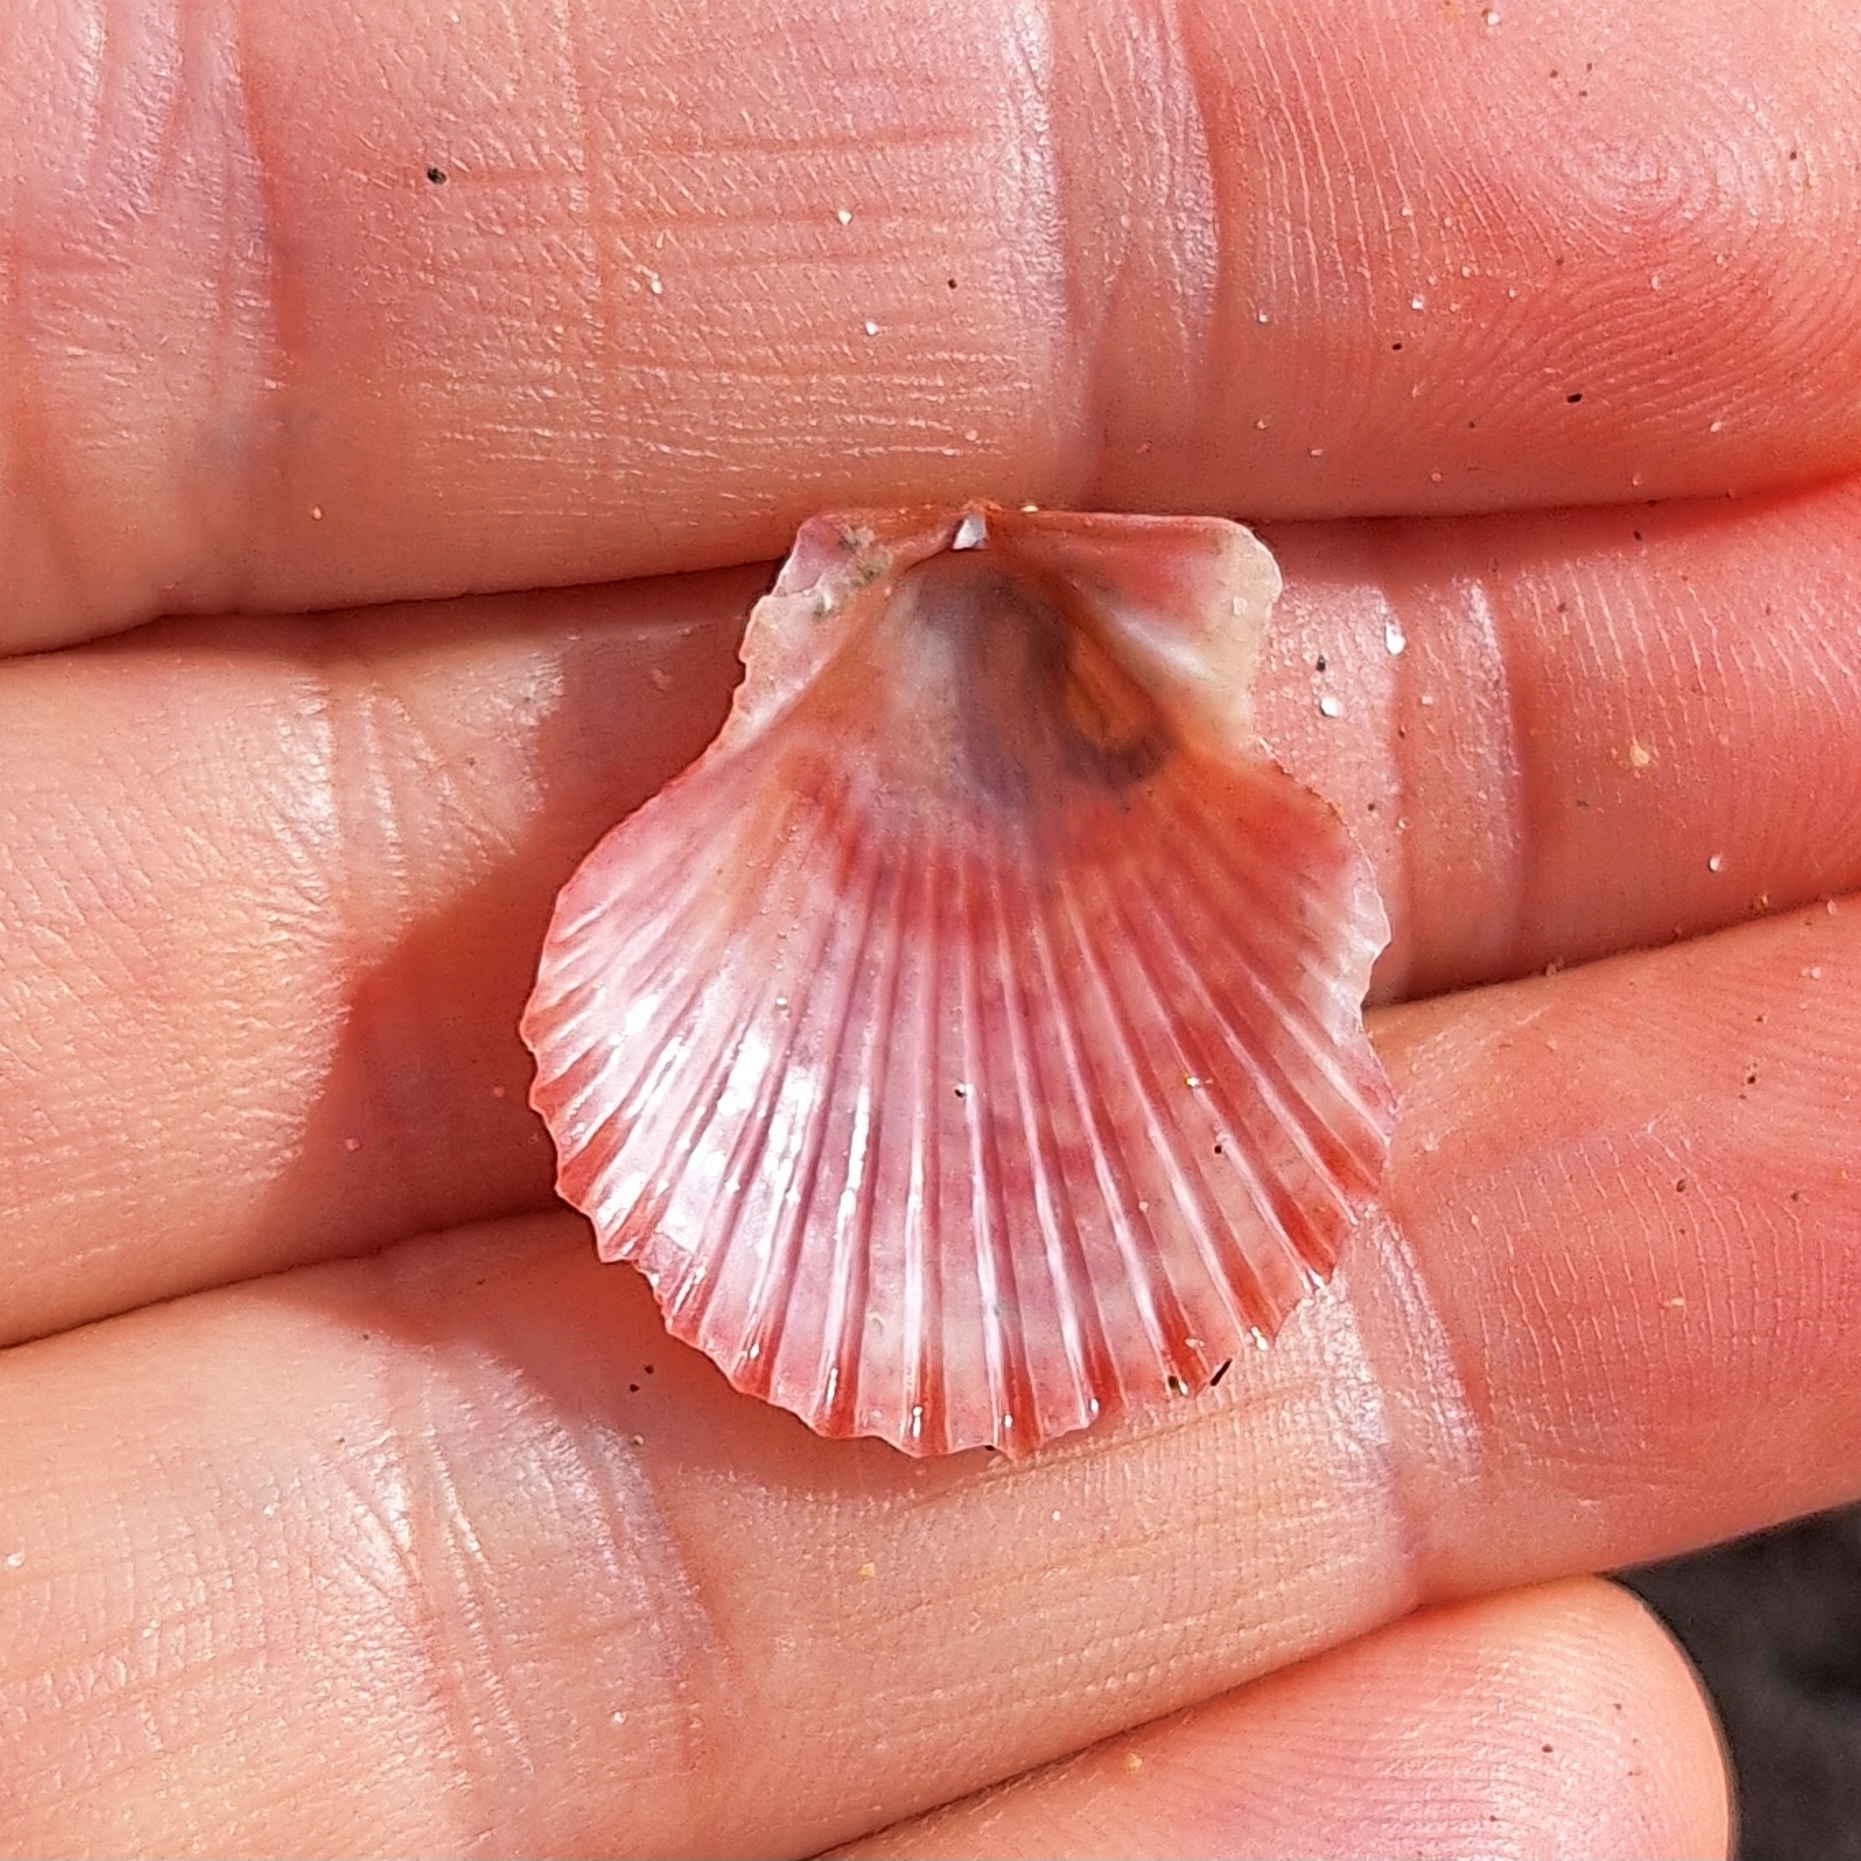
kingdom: Animalia
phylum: Mollusca
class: Bivalvia
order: Pectinida
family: Pectinidae
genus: Aequipecten
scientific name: Aequipecten opercularis
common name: Queen scallop
